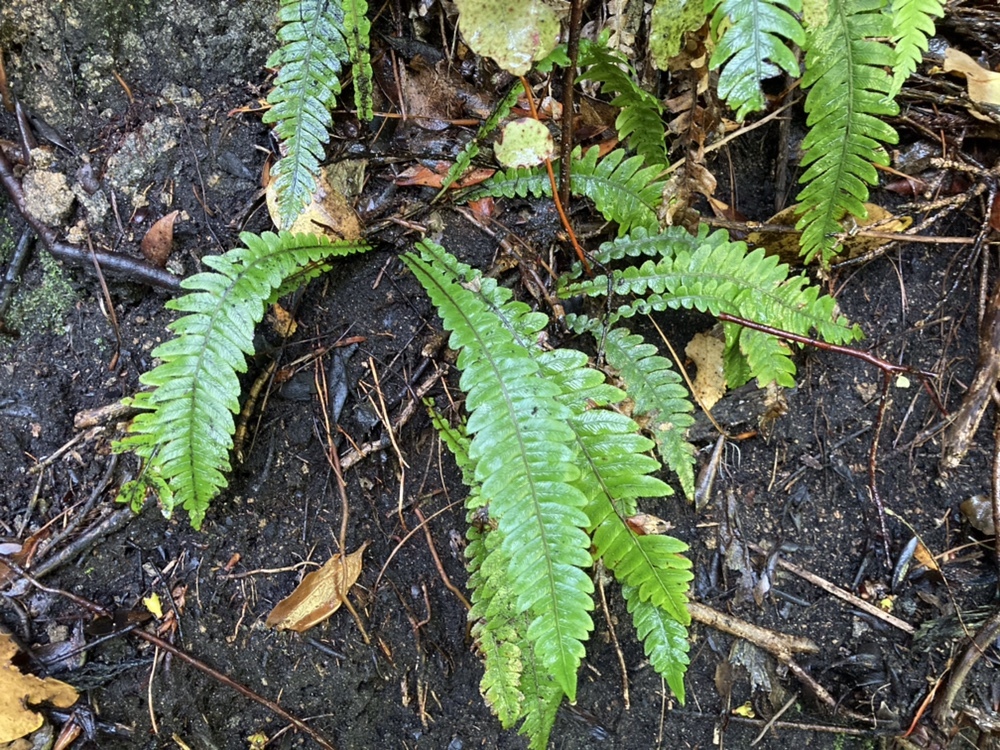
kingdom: Plantae
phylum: Tracheophyta
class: Polypodiopsida
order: Polypodiales
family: Blechnaceae
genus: Austroblechnum
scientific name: Austroblechnum lanceolatum
